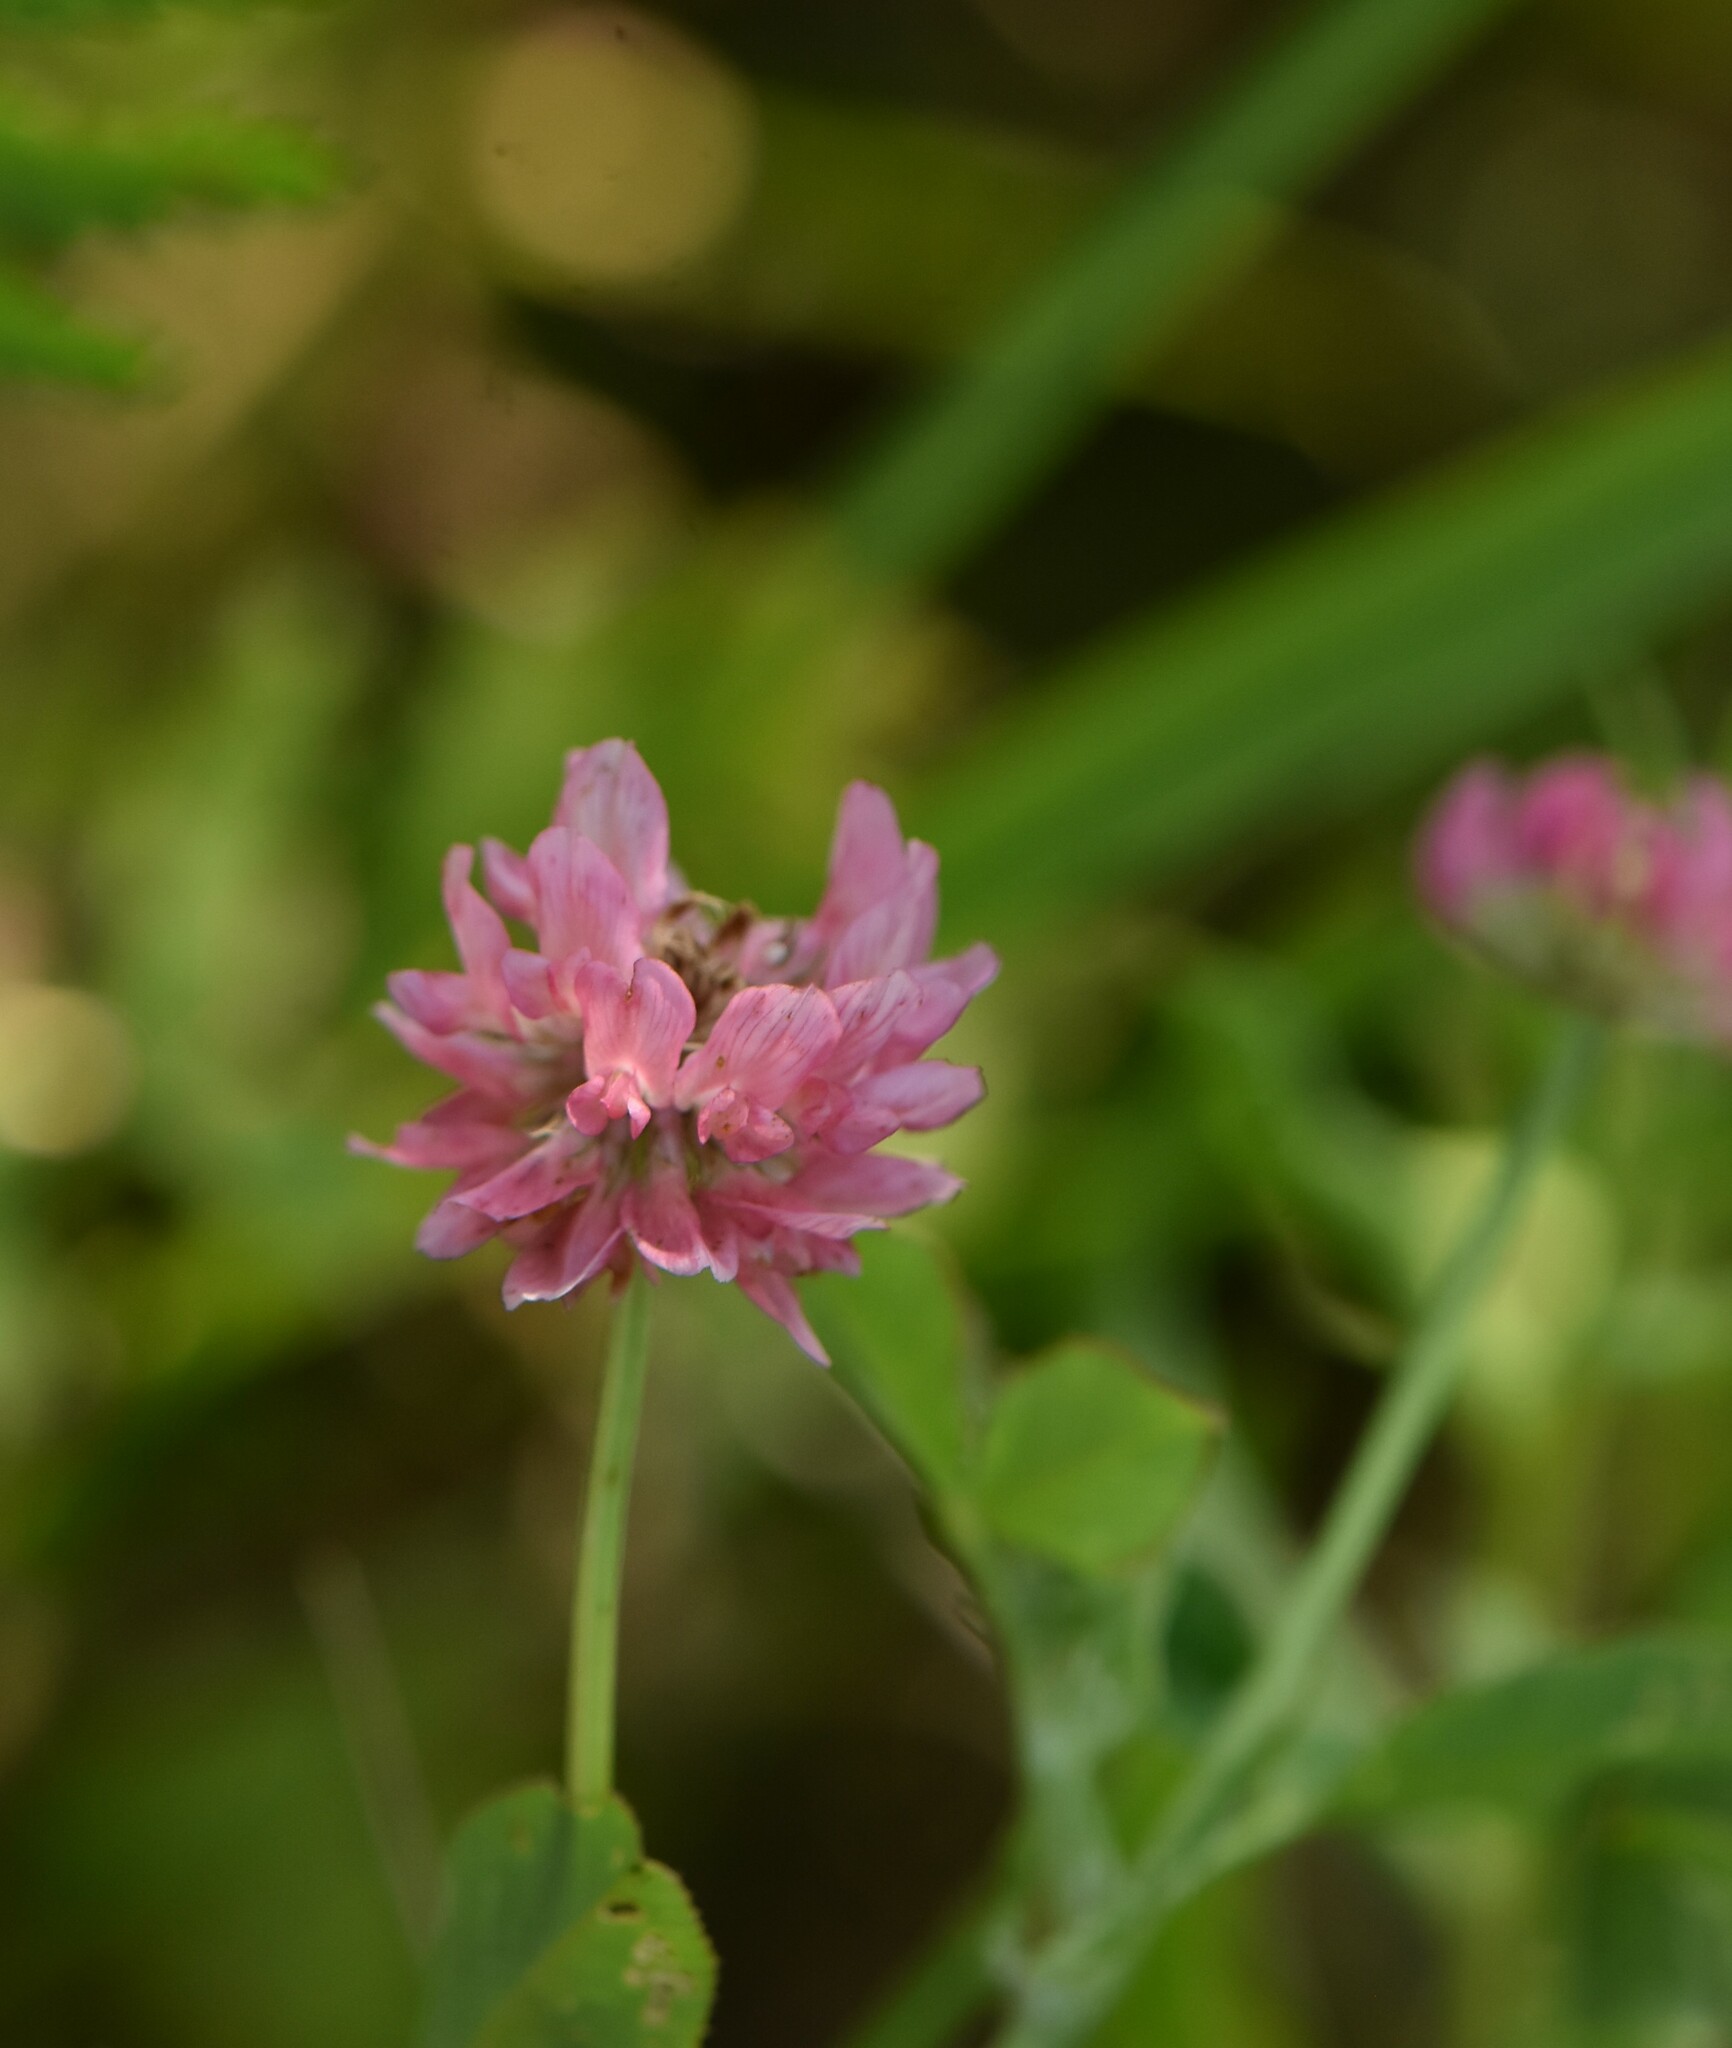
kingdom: Plantae
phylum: Tracheophyta
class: Magnoliopsida
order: Fabales
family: Fabaceae
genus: Trifolium
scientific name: Trifolium hybridum
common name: Alsike clover
